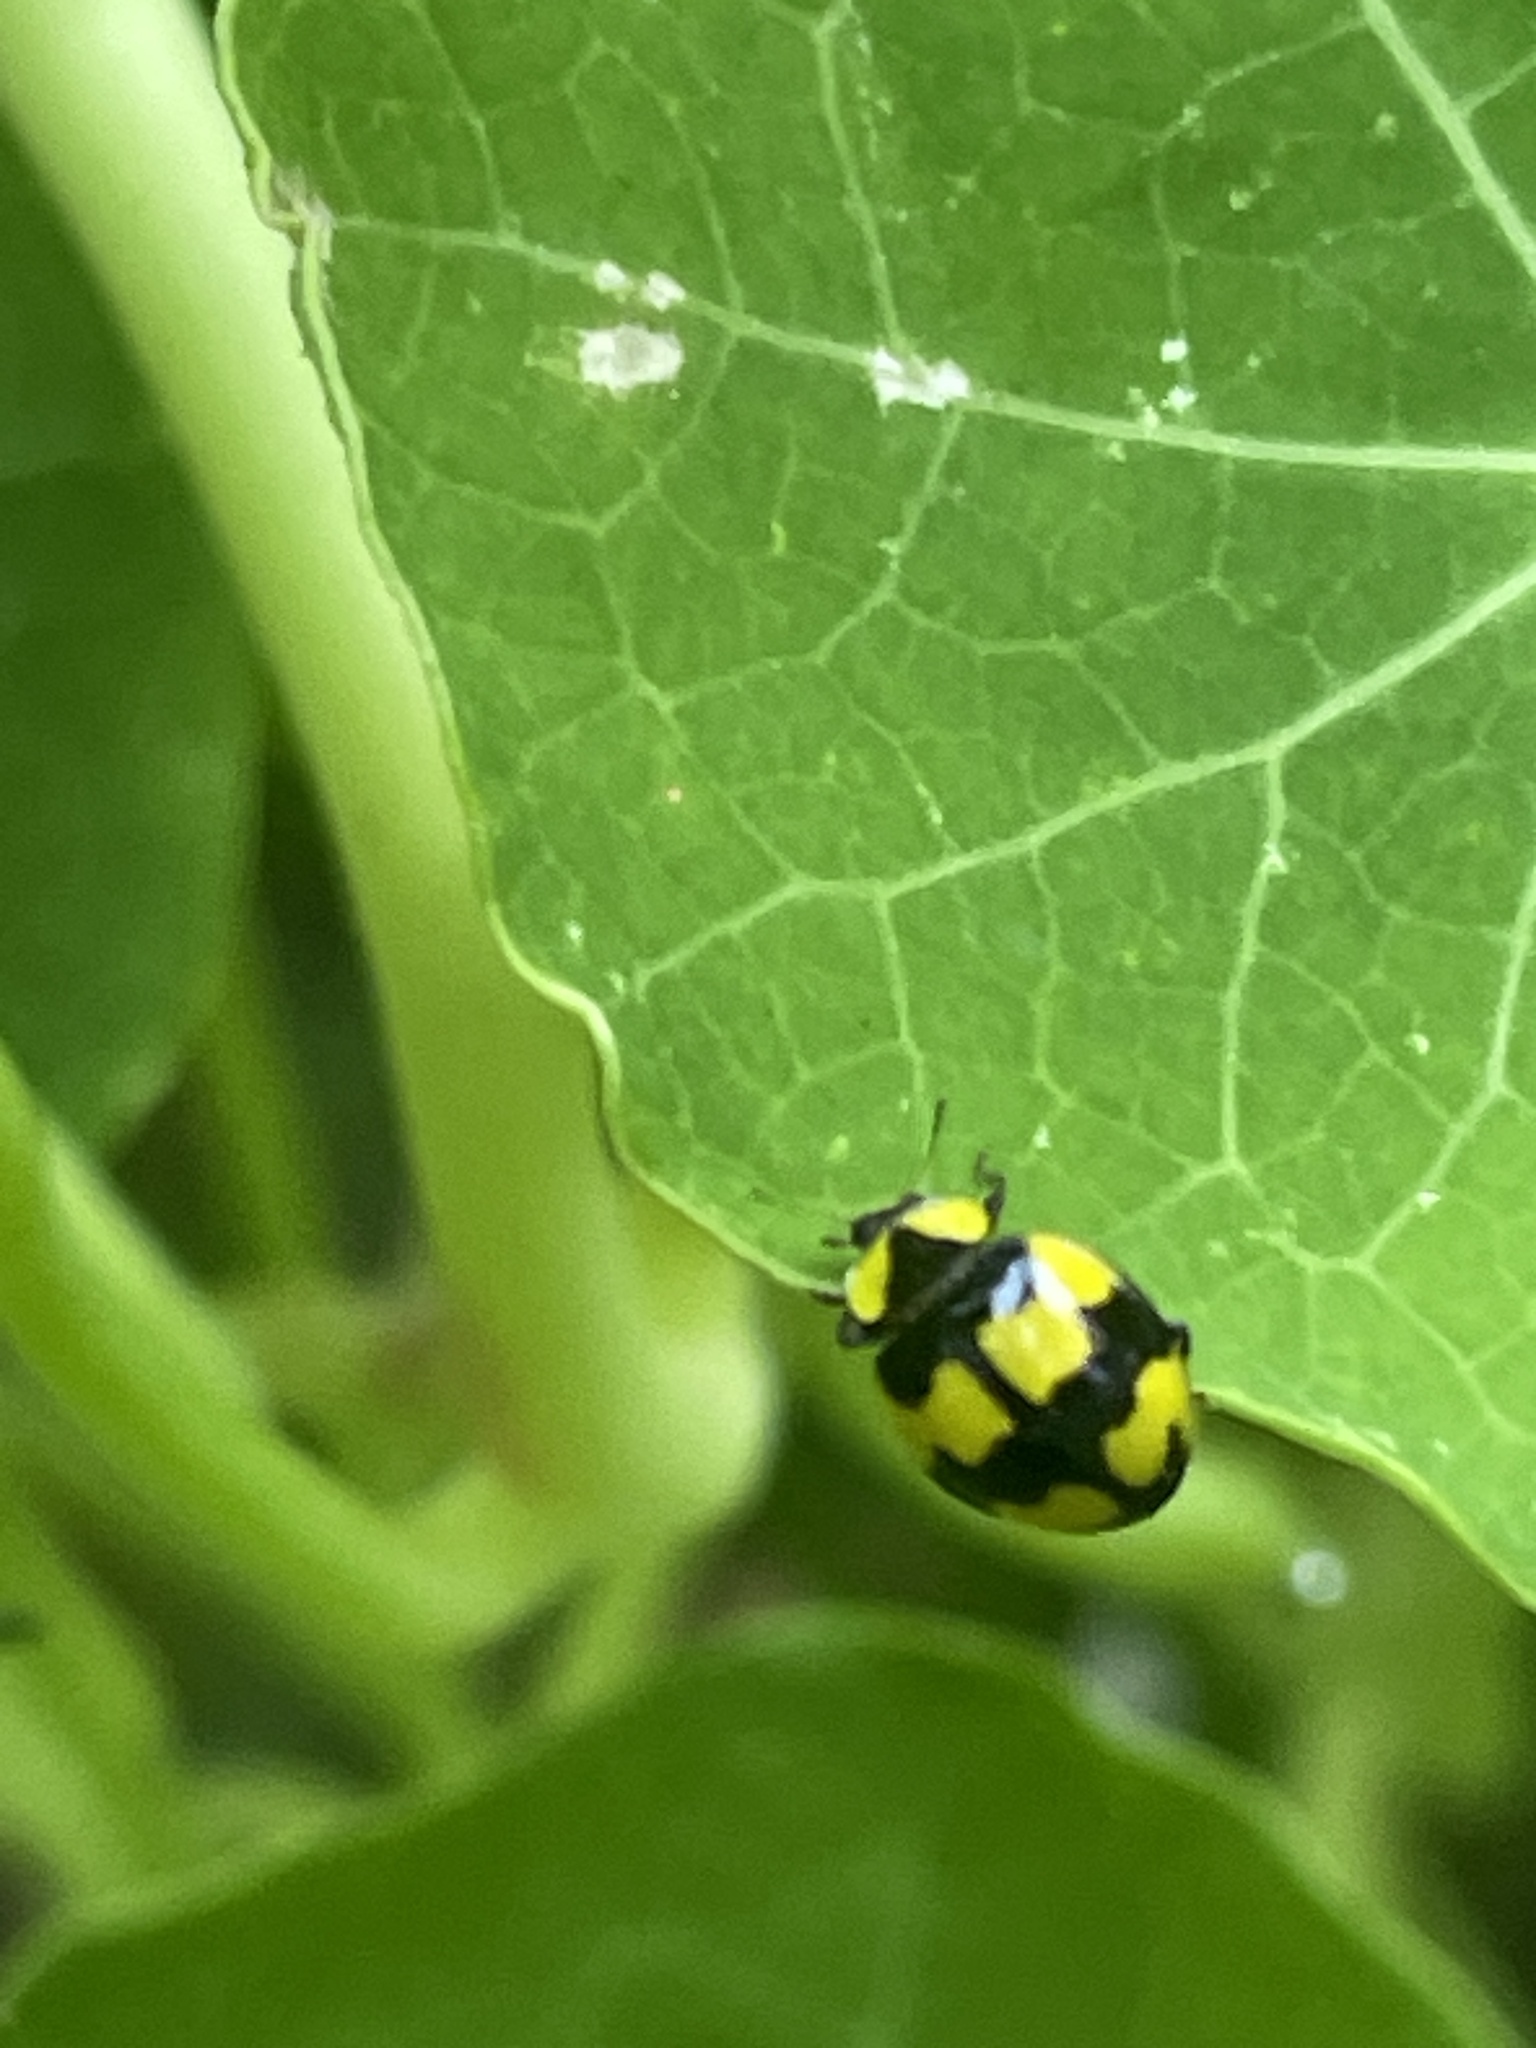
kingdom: Animalia
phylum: Arthropoda
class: Insecta
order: Coleoptera
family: Coccinellidae
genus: Illeis
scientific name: Illeis galbula
